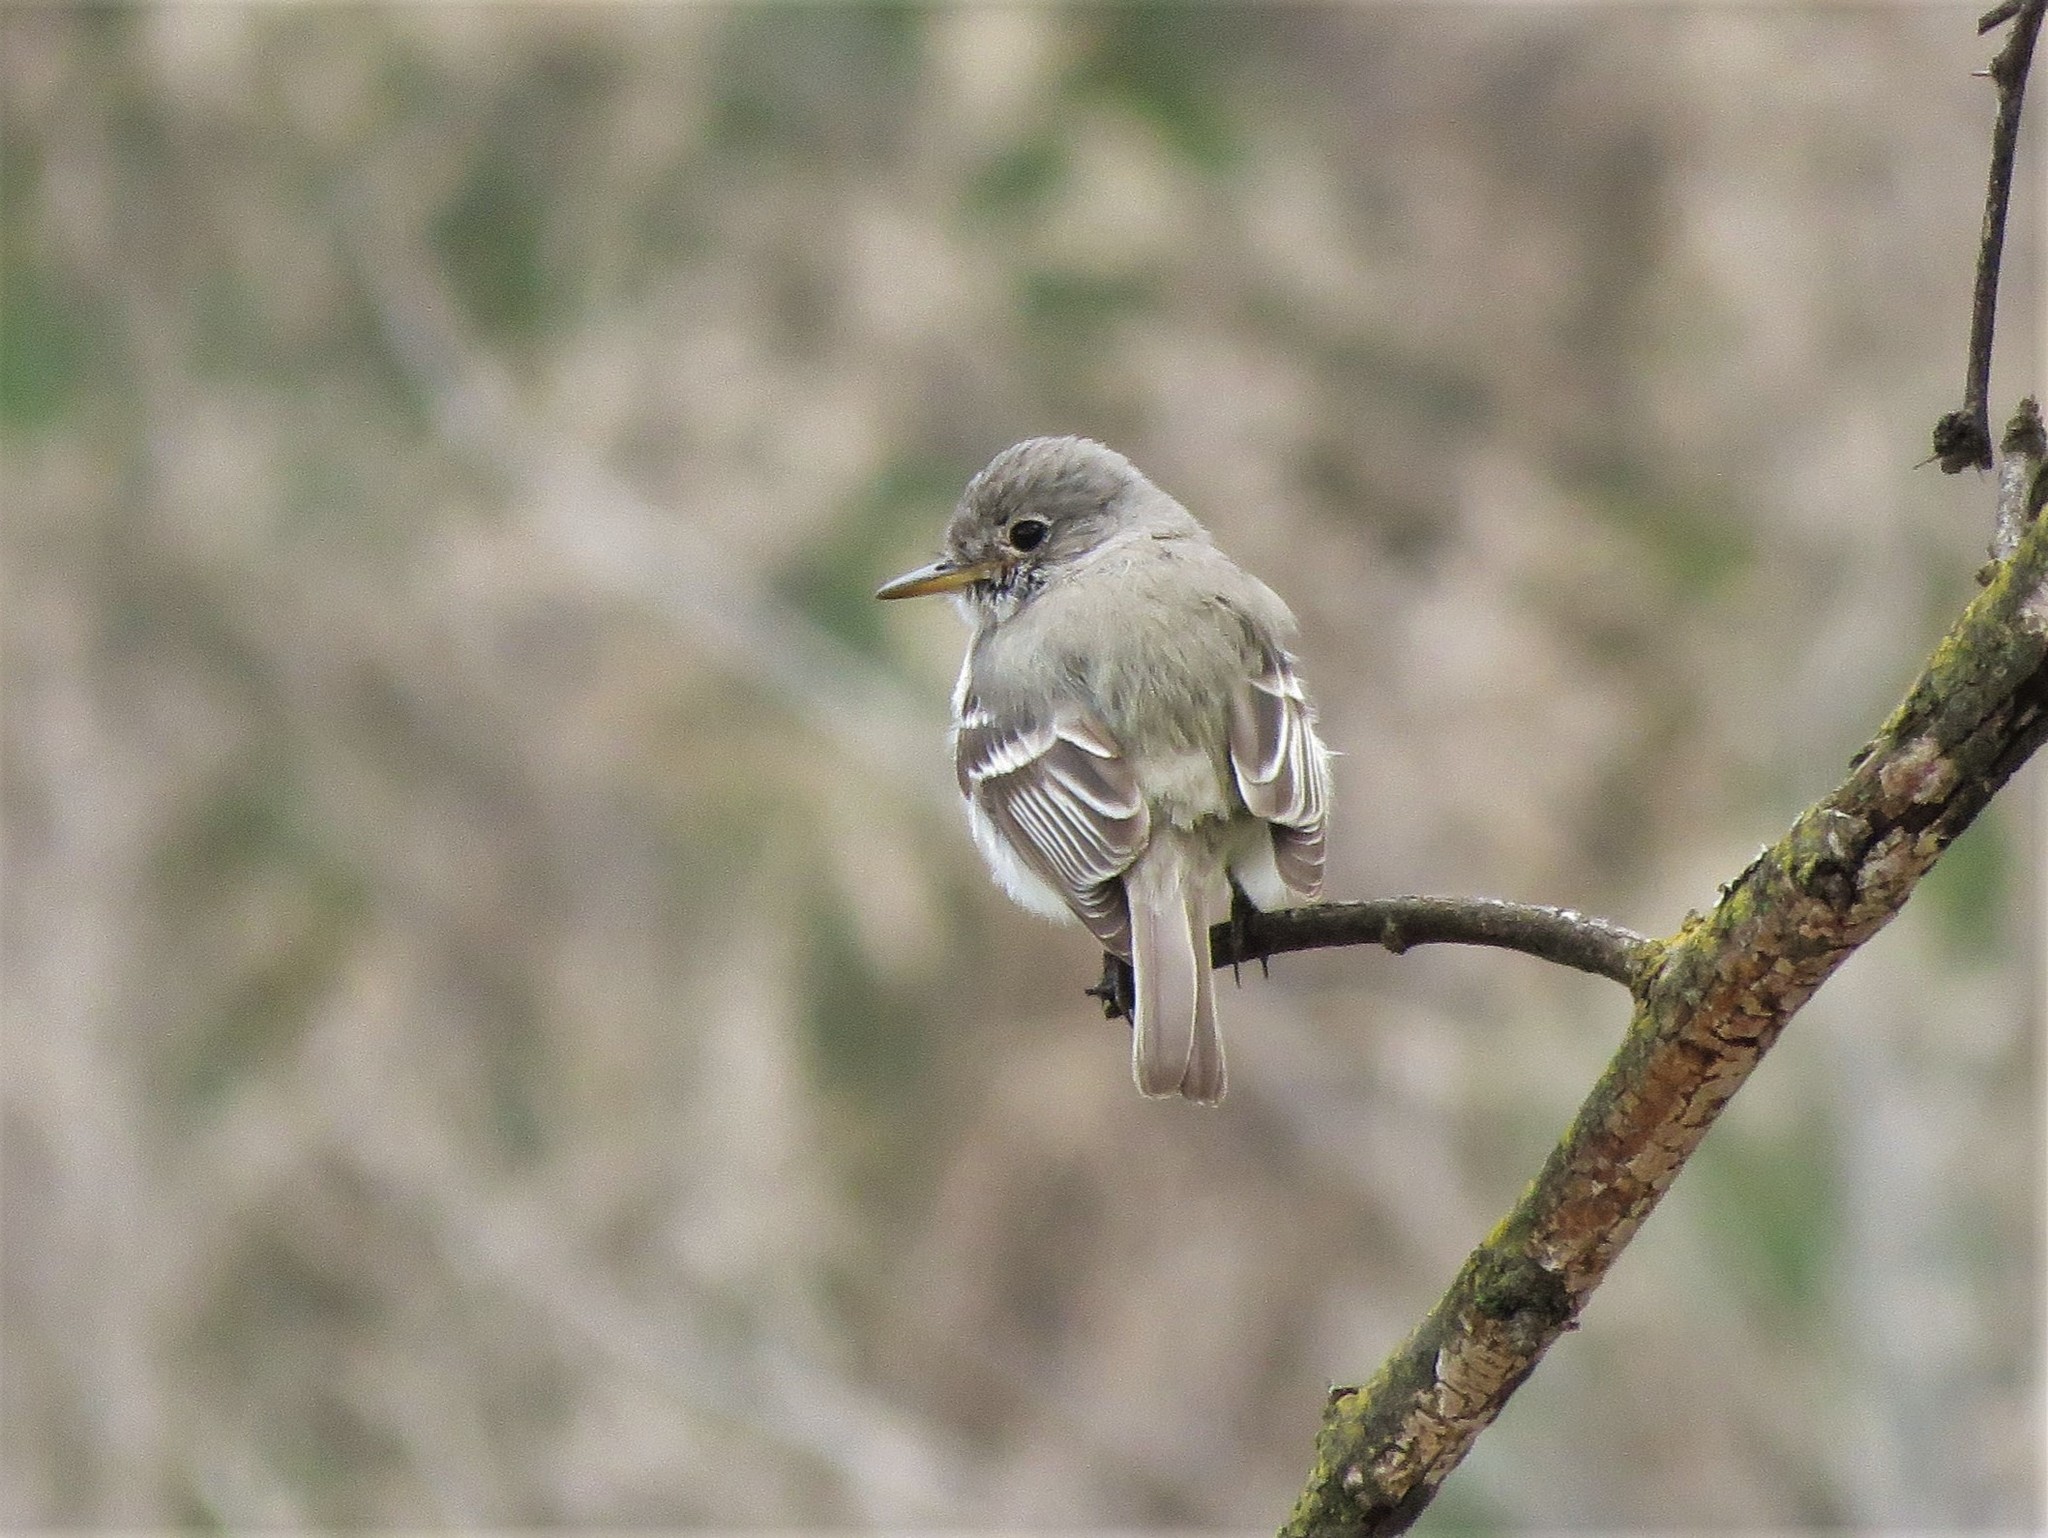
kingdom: Animalia
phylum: Chordata
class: Aves
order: Passeriformes
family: Tyrannidae
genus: Empidonax
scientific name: Empidonax wrightii
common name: Gray flycatcher
